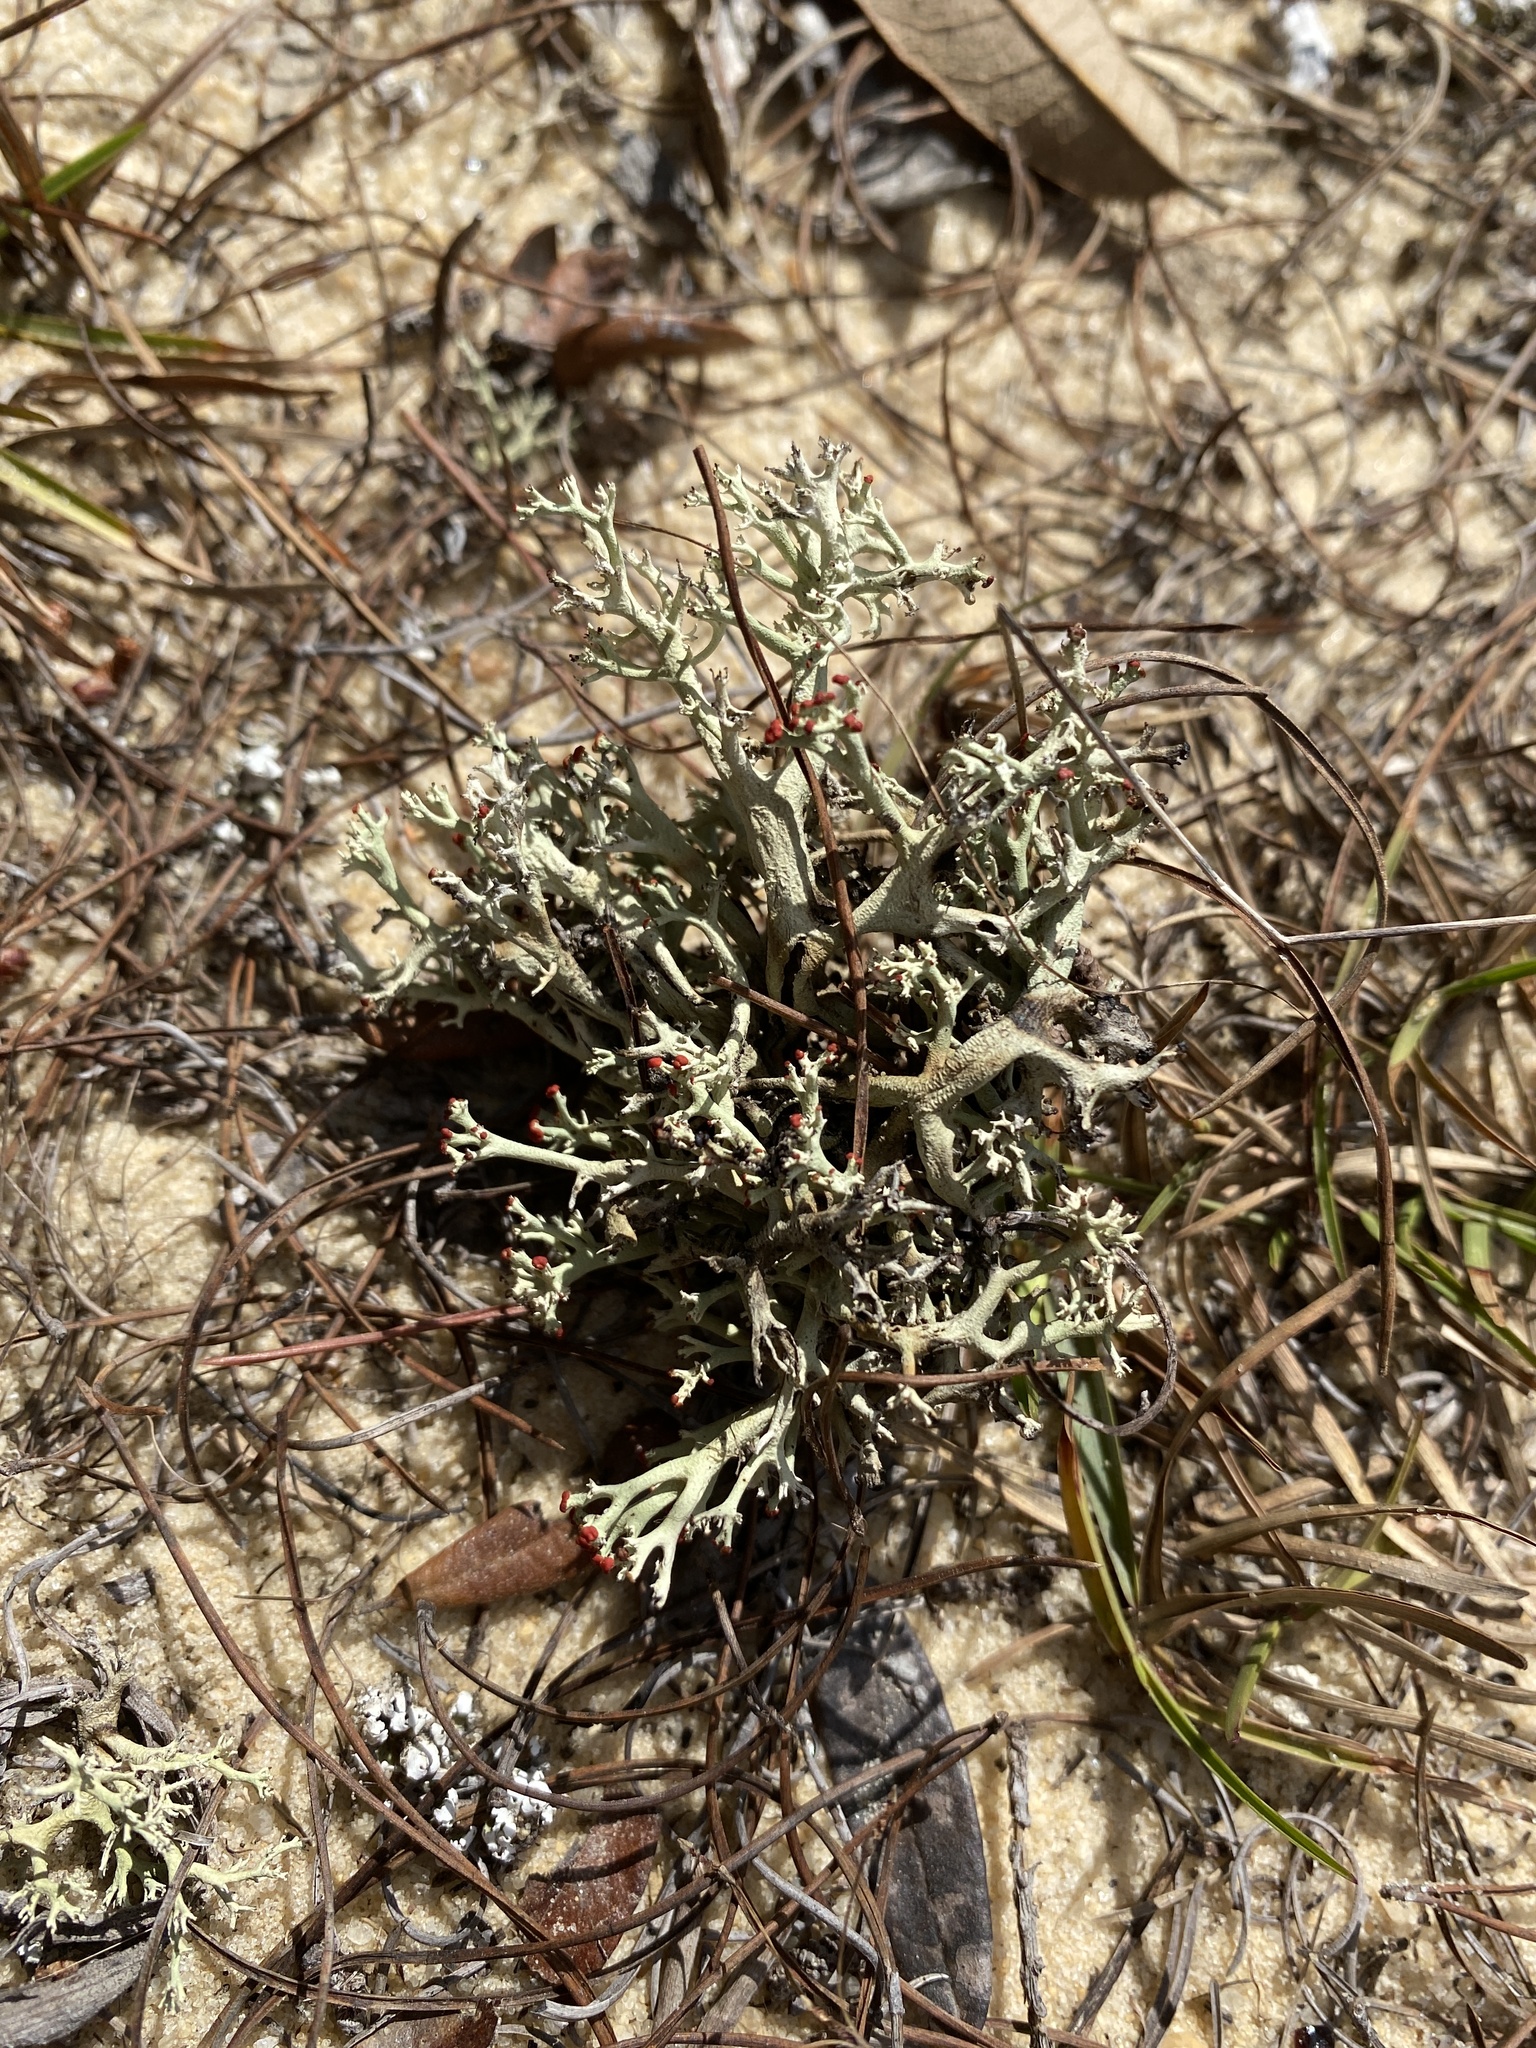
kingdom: Fungi
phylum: Ascomycota
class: Lecanoromycetes
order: Lecanorales
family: Cladoniaceae
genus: Cladonia
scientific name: Cladonia leporina
